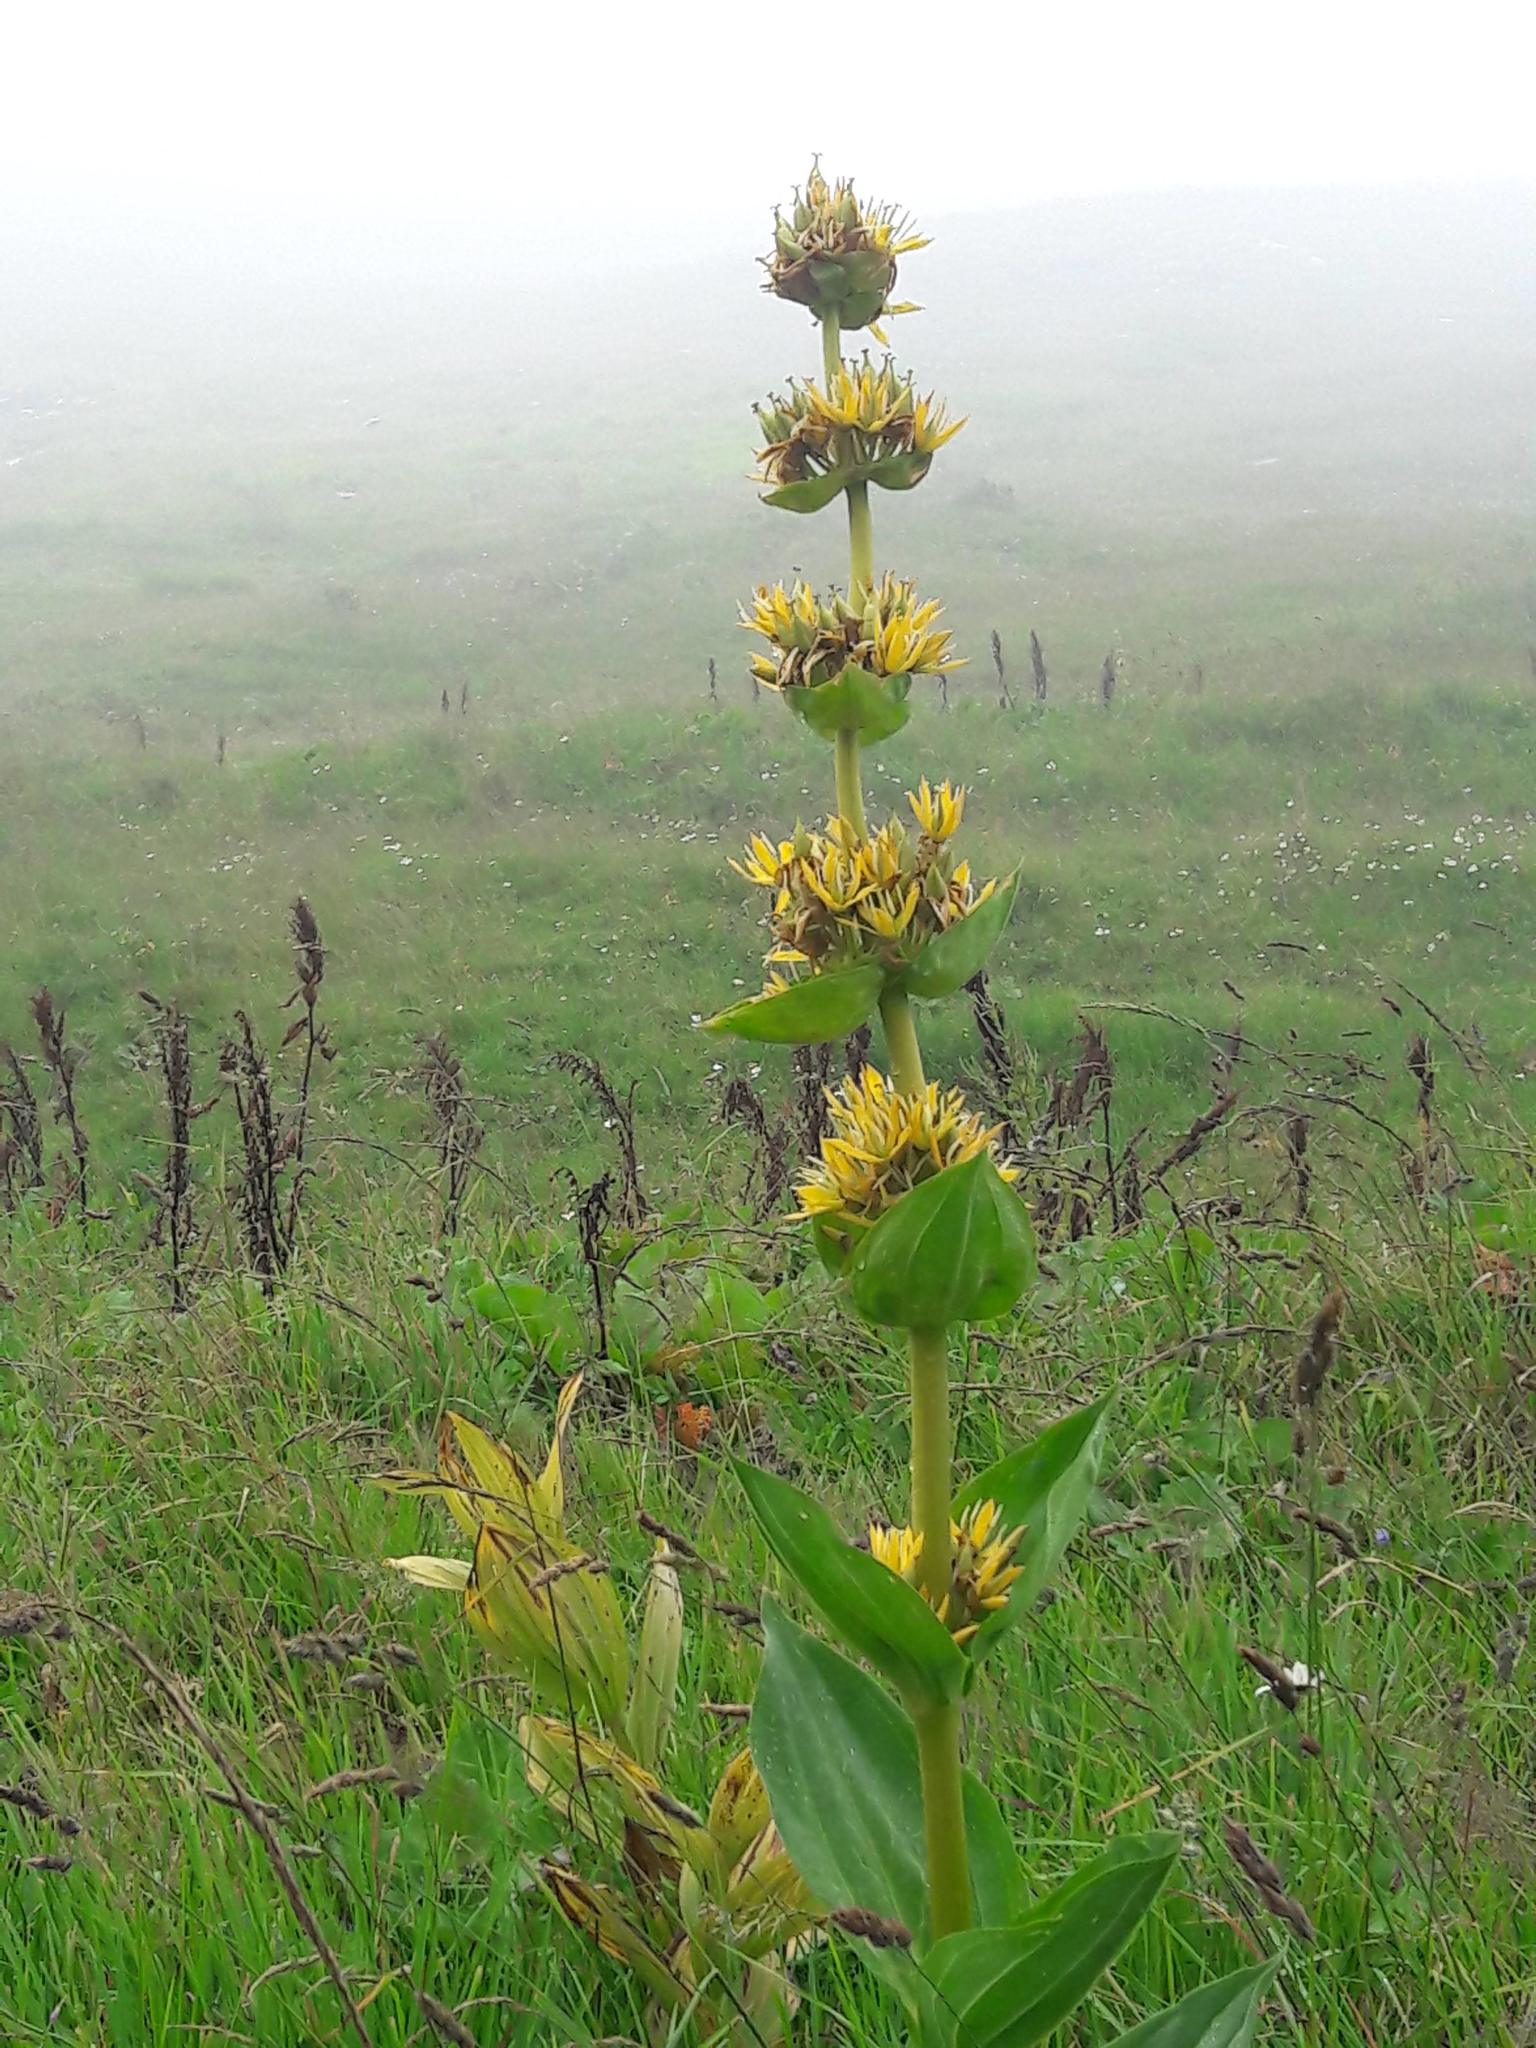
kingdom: Plantae
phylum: Tracheophyta
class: Magnoliopsida
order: Gentianales
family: Gentianaceae
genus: Gentiana
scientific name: Gentiana lutea
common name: Great yellow gentian
